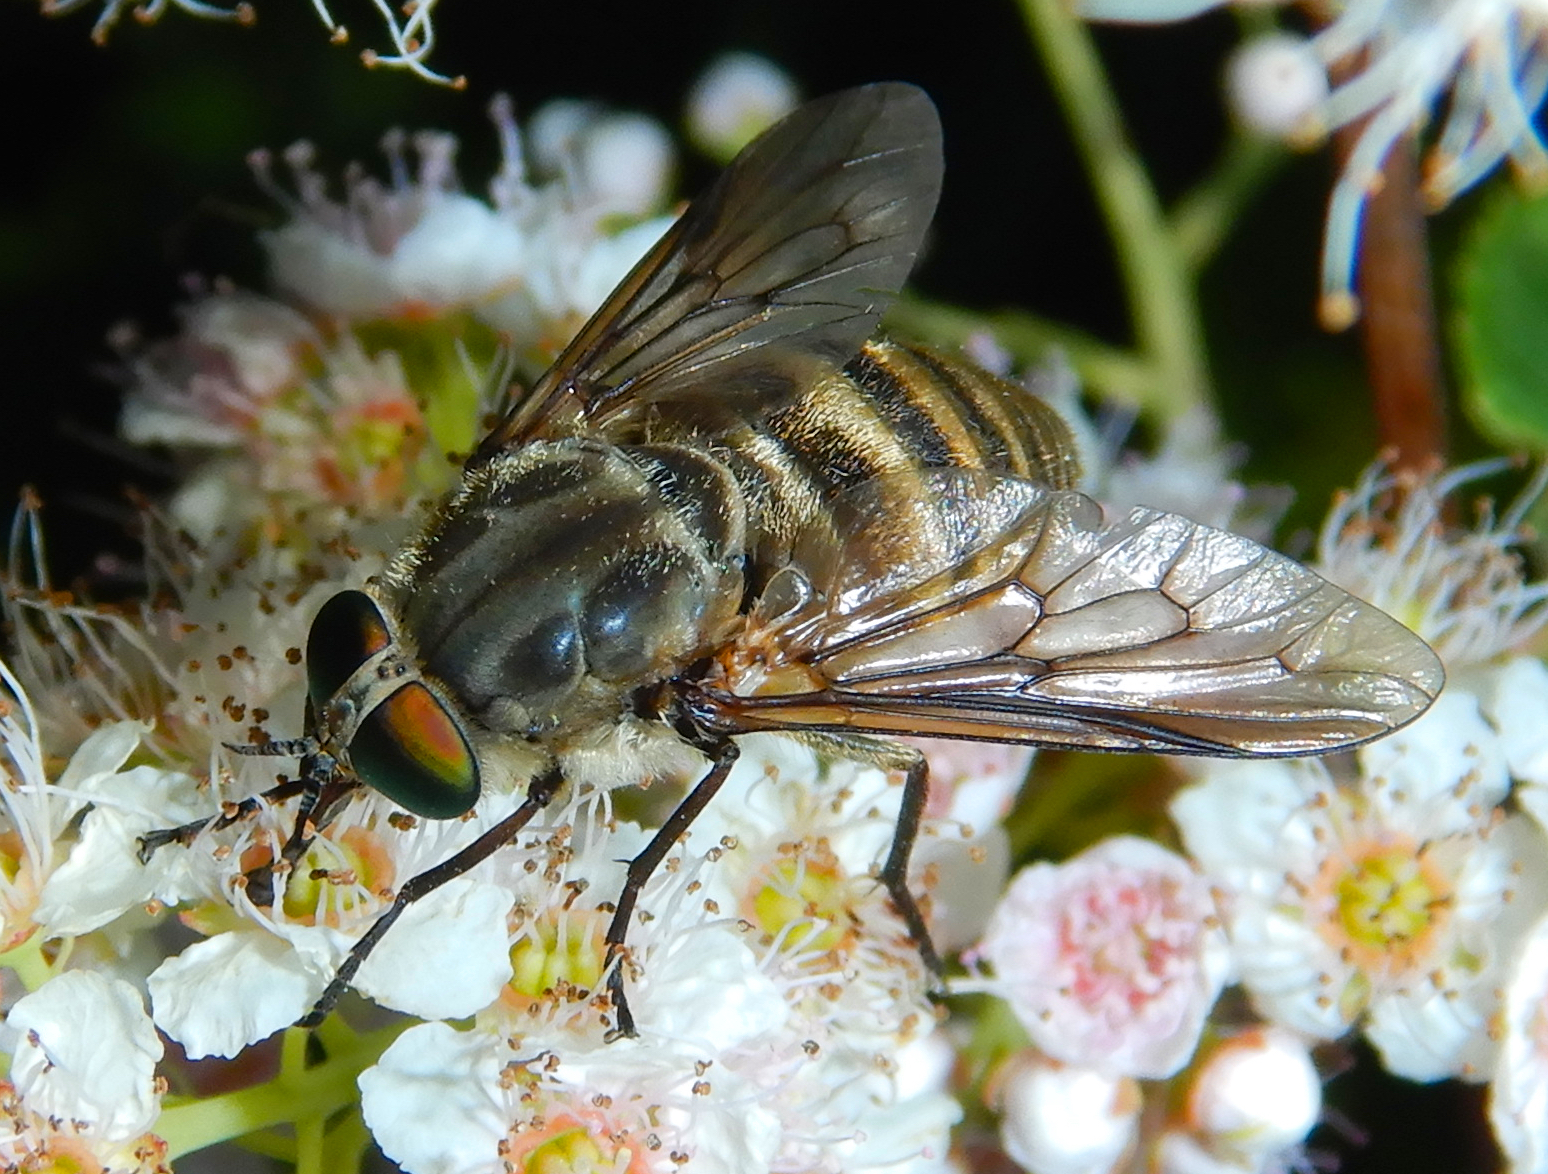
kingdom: Animalia
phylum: Arthropoda
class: Insecta
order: Diptera
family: Tabanidae
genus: Stonemyia
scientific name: Stonemyia tranquilla
